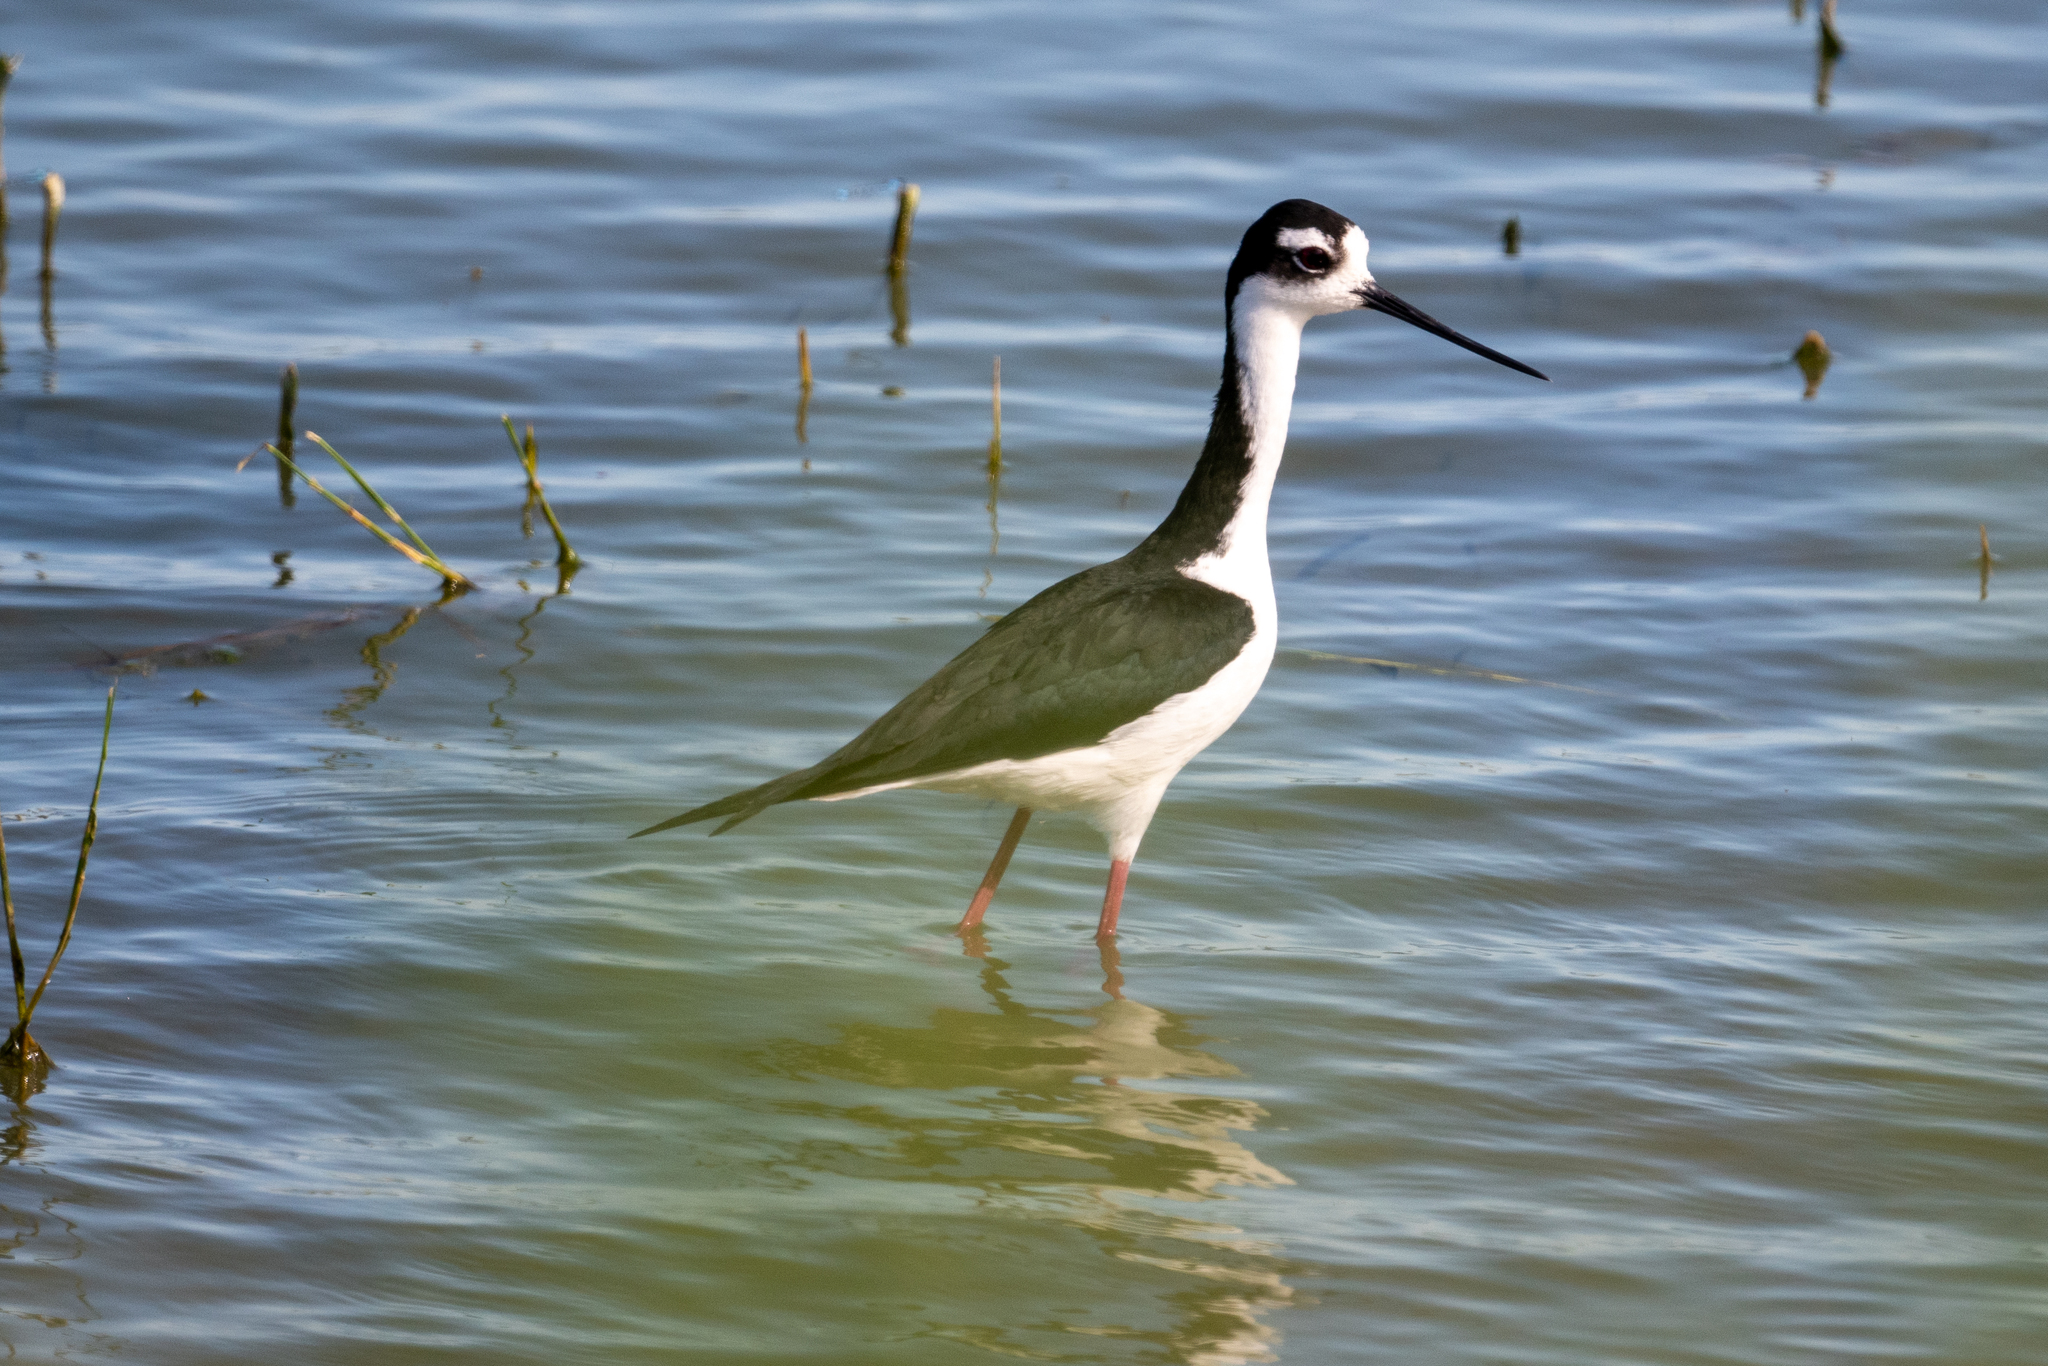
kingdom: Animalia
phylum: Chordata
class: Aves
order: Charadriiformes
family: Recurvirostridae
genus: Himantopus
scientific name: Himantopus mexicanus
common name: Black-necked stilt
